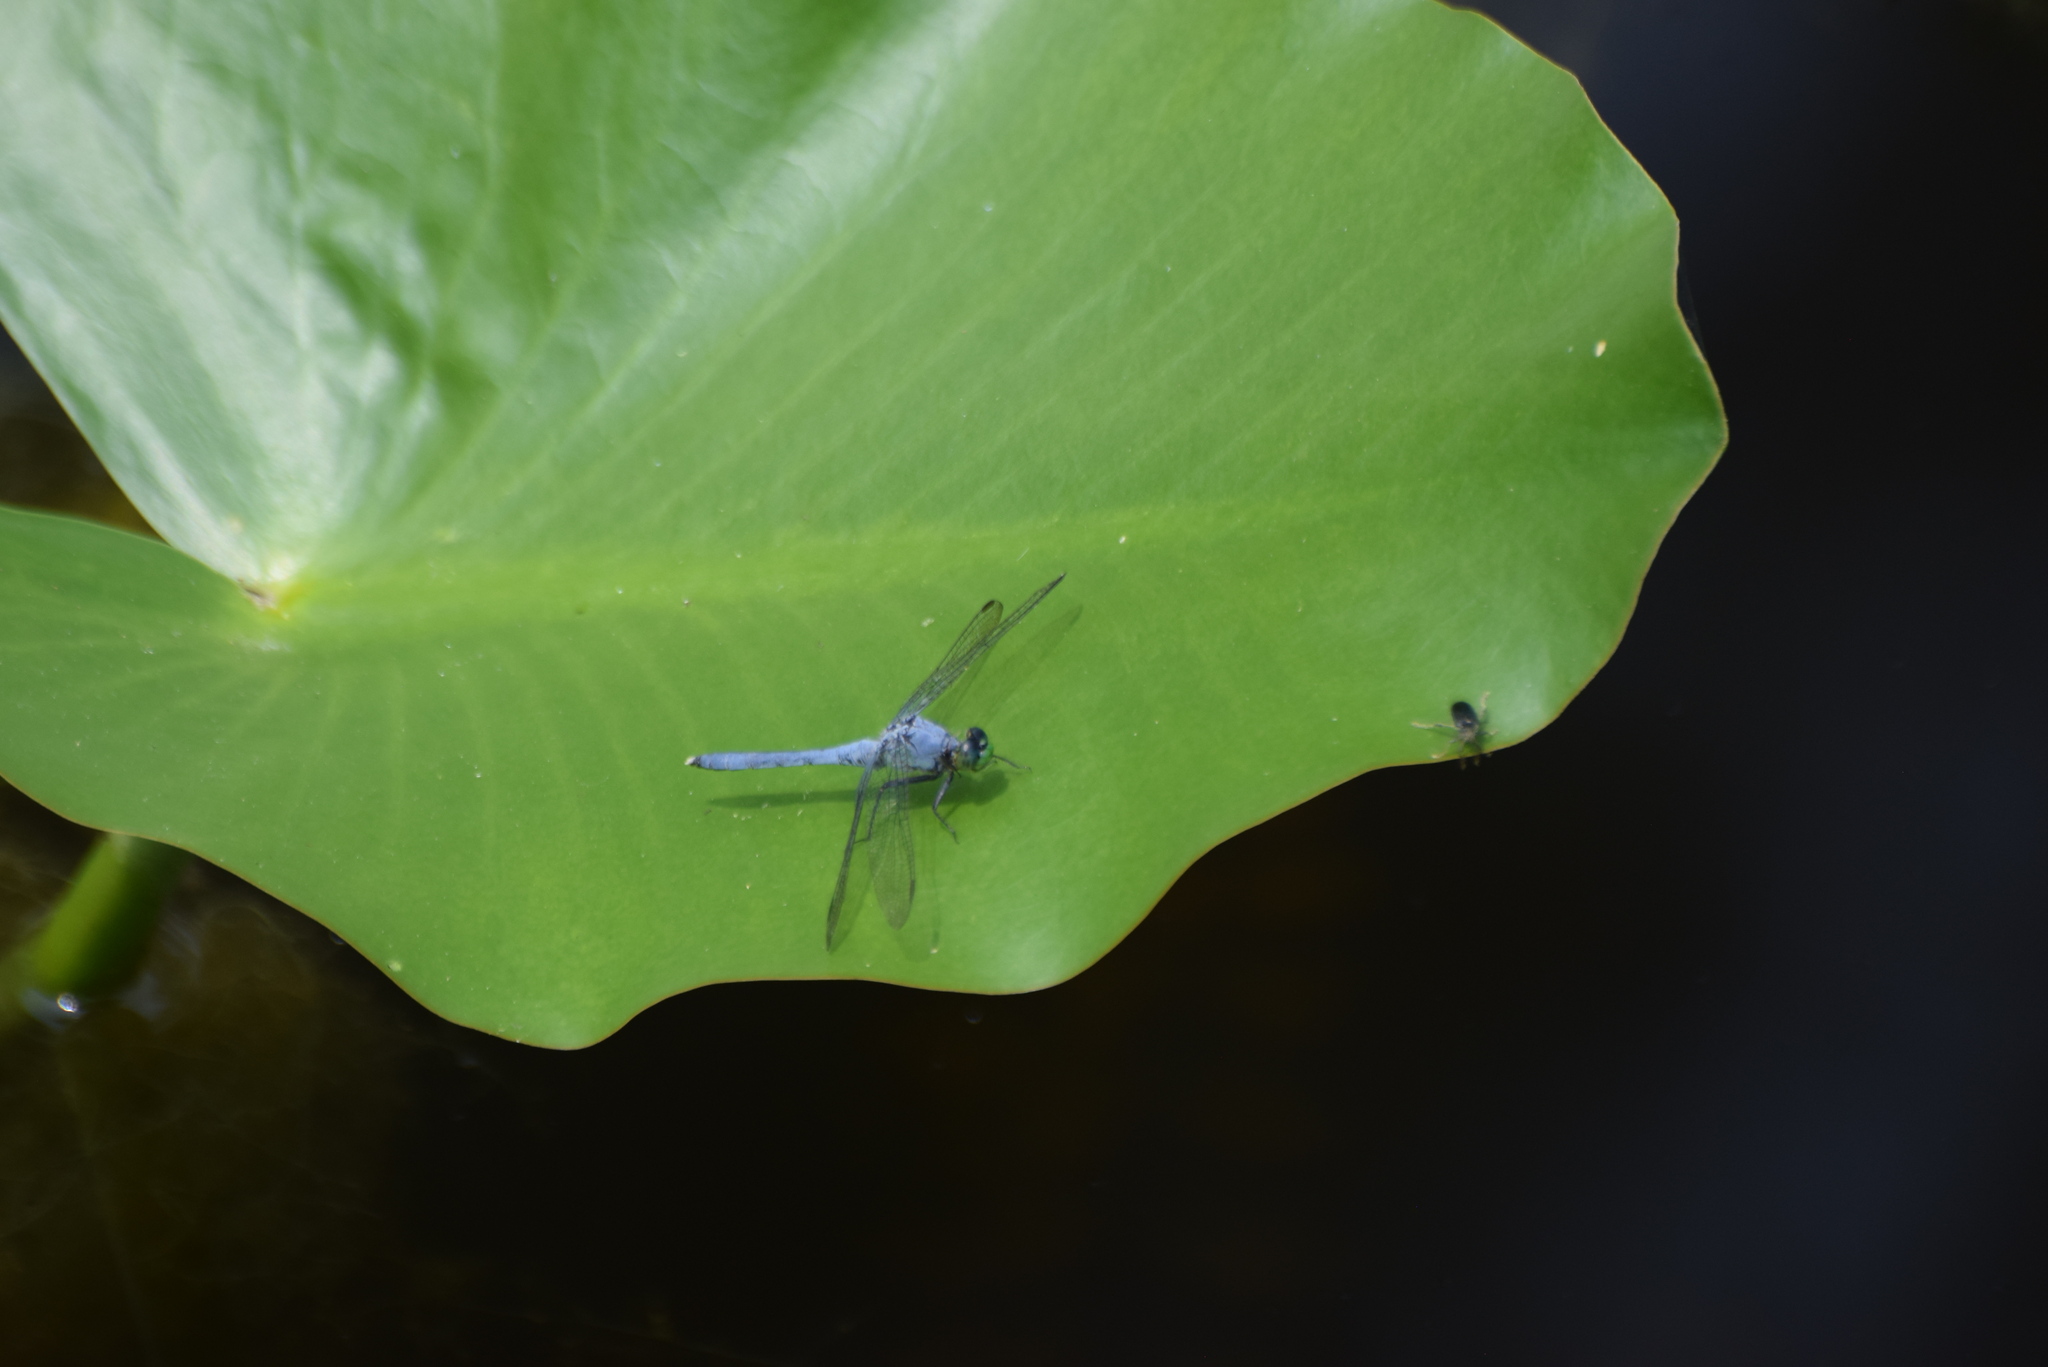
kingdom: Animalia
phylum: Arthropoda
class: Insecta
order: Odonata
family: Libellulidae
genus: Erythemis
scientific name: Erythemis simplicicollis
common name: Eastern pondhawk
